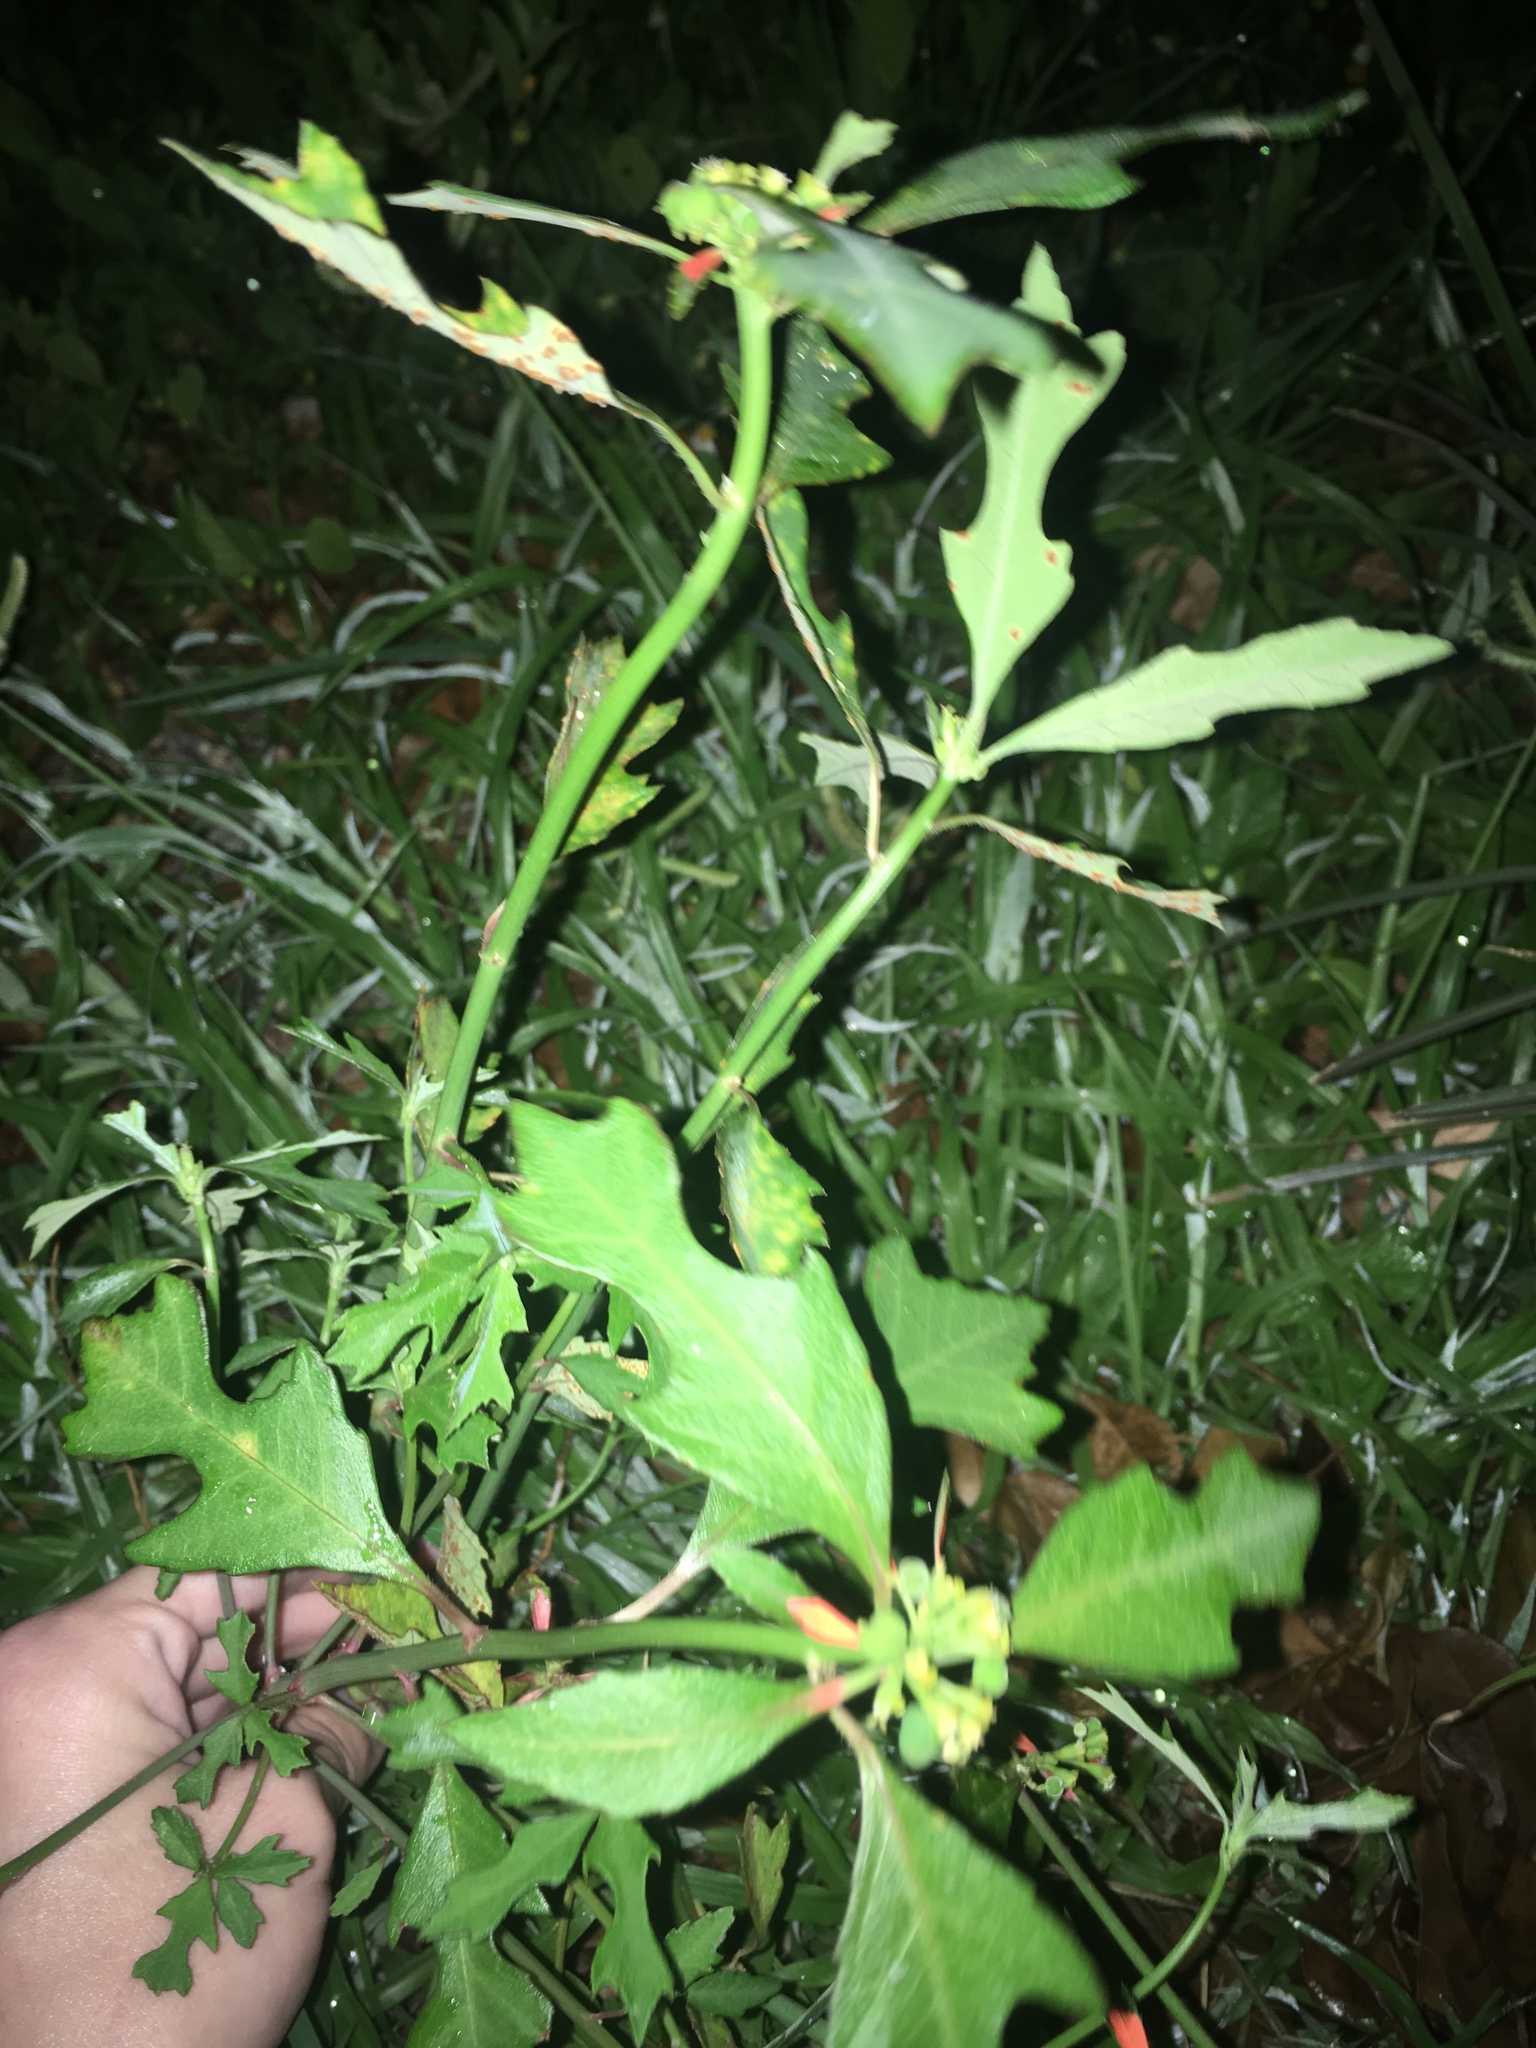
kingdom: Plantae
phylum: Tracheophyta
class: Magnoliopsida
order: Malpighiales
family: Euphorbiaceae
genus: Euphorbia
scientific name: Euphorbia heterophylla
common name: Mexican fireplant
